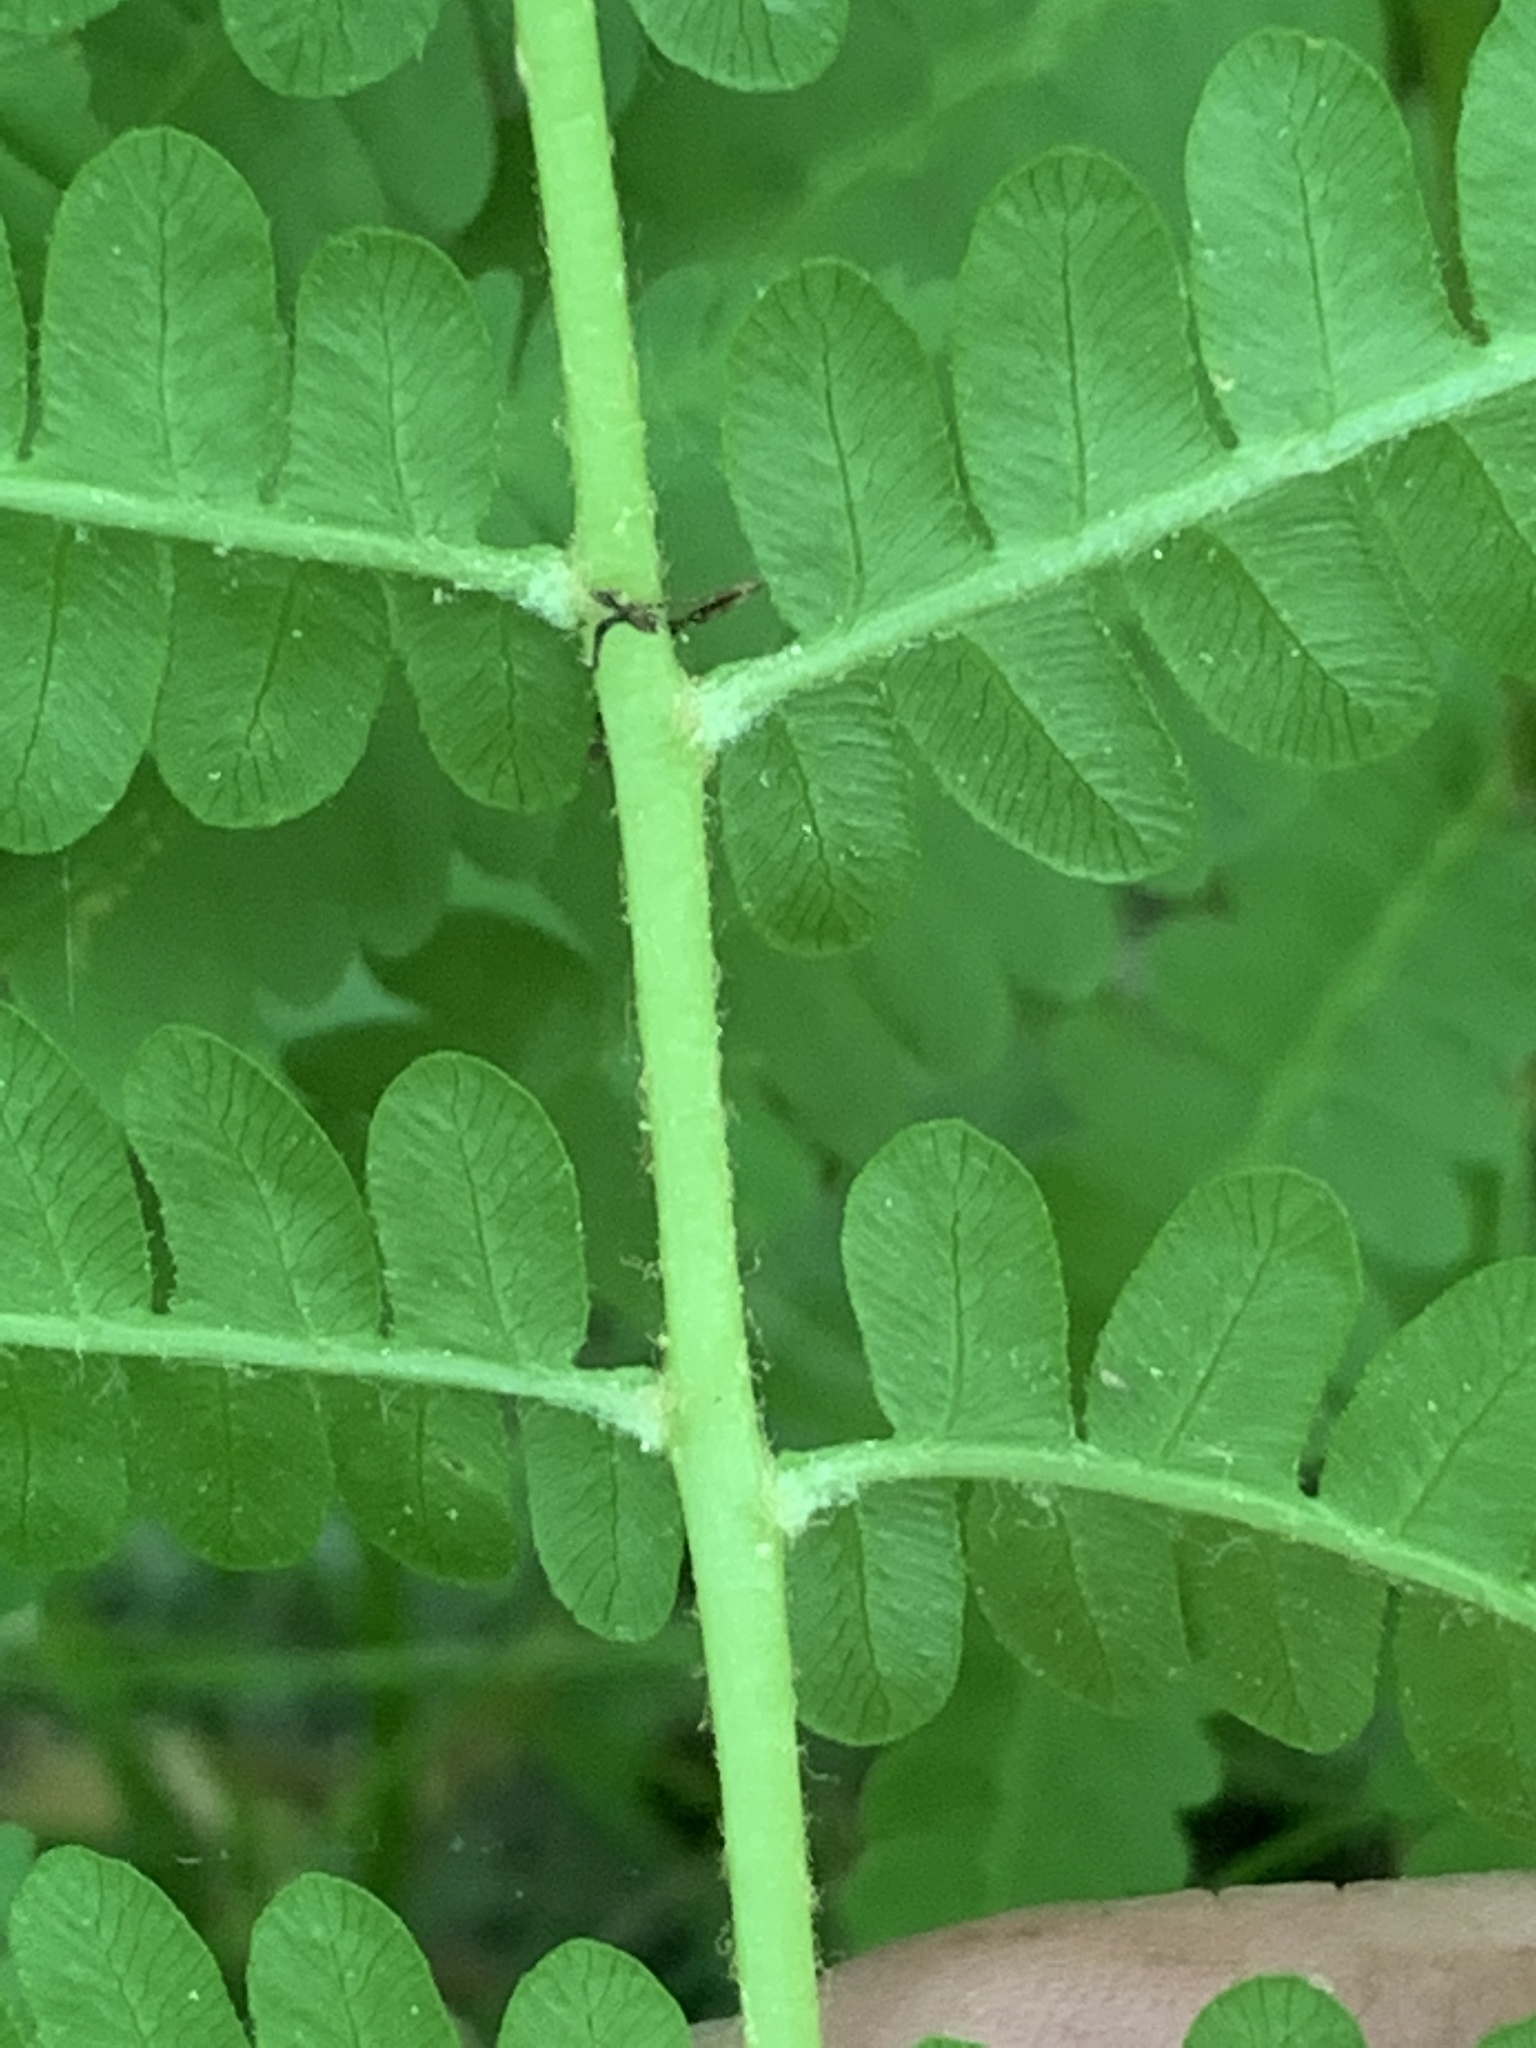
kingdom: Plantae
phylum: Tracheophyta
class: Polypodiopsida
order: Osmundales
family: Osmundaceae
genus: Osmundastrum
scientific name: Osmundastrum cinnamomeum
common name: Cinnamon fern
